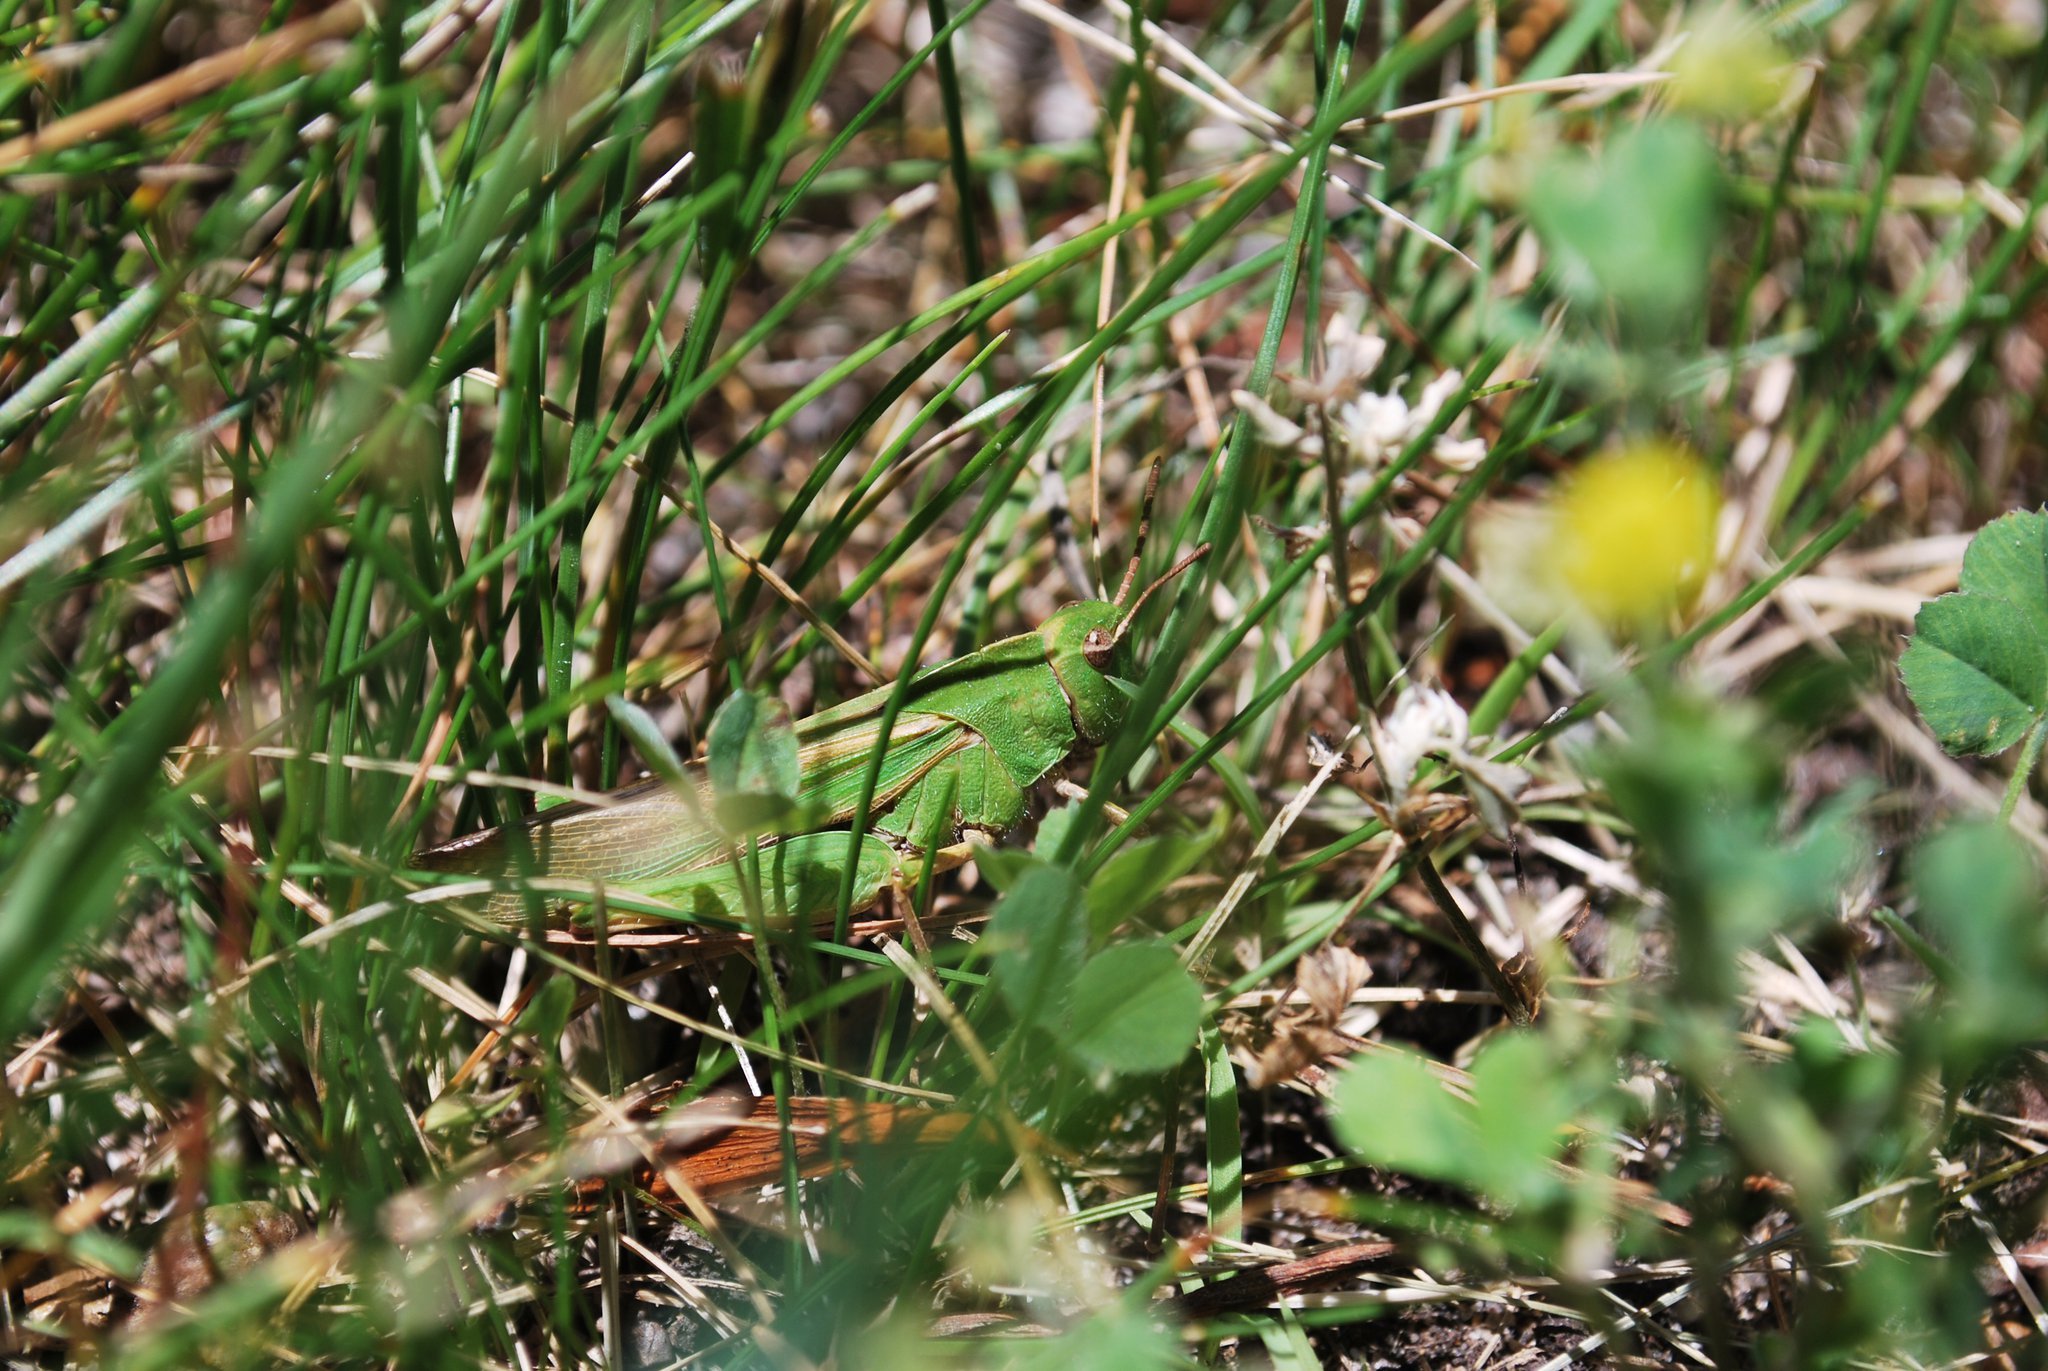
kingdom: Animalia
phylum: Arthropoda
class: Insecta
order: Orthoptera
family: Acrididae
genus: Chortophaga
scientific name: Chortophaga viridifasciata
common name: Green-striped grasshopper
